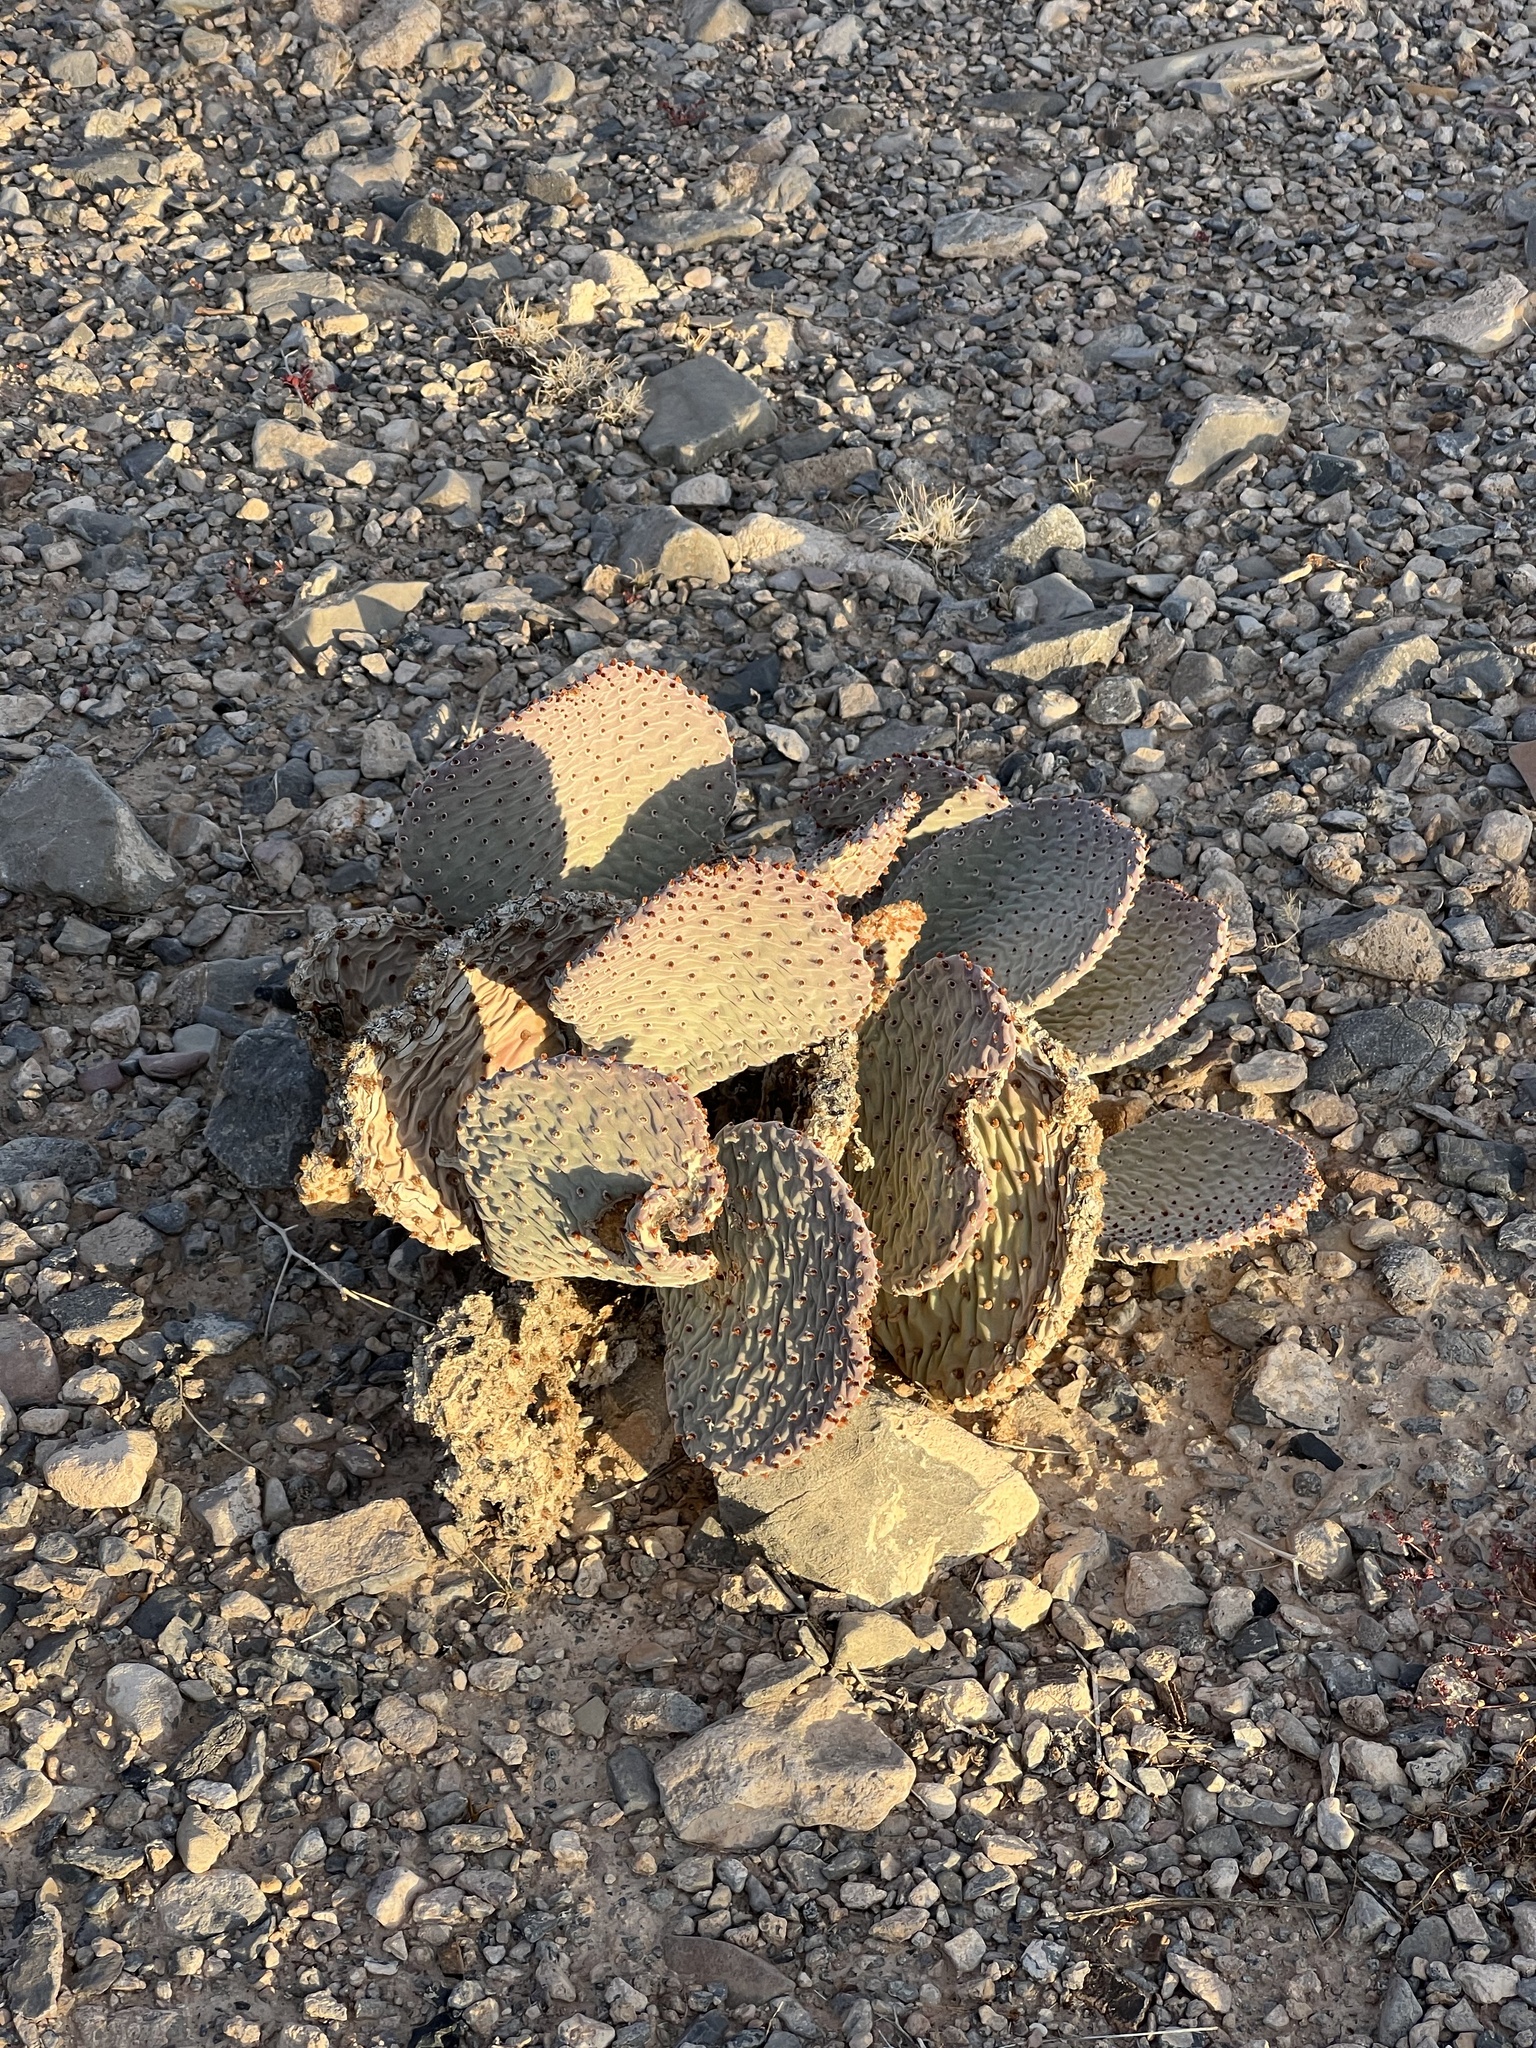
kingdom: Plantae
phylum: Tracheophyta
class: Magnoliopsida
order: Caryophyllales
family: Cactaceae
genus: Opuntia
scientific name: Opuntia basilaris
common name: Beavertail prickly-pear
